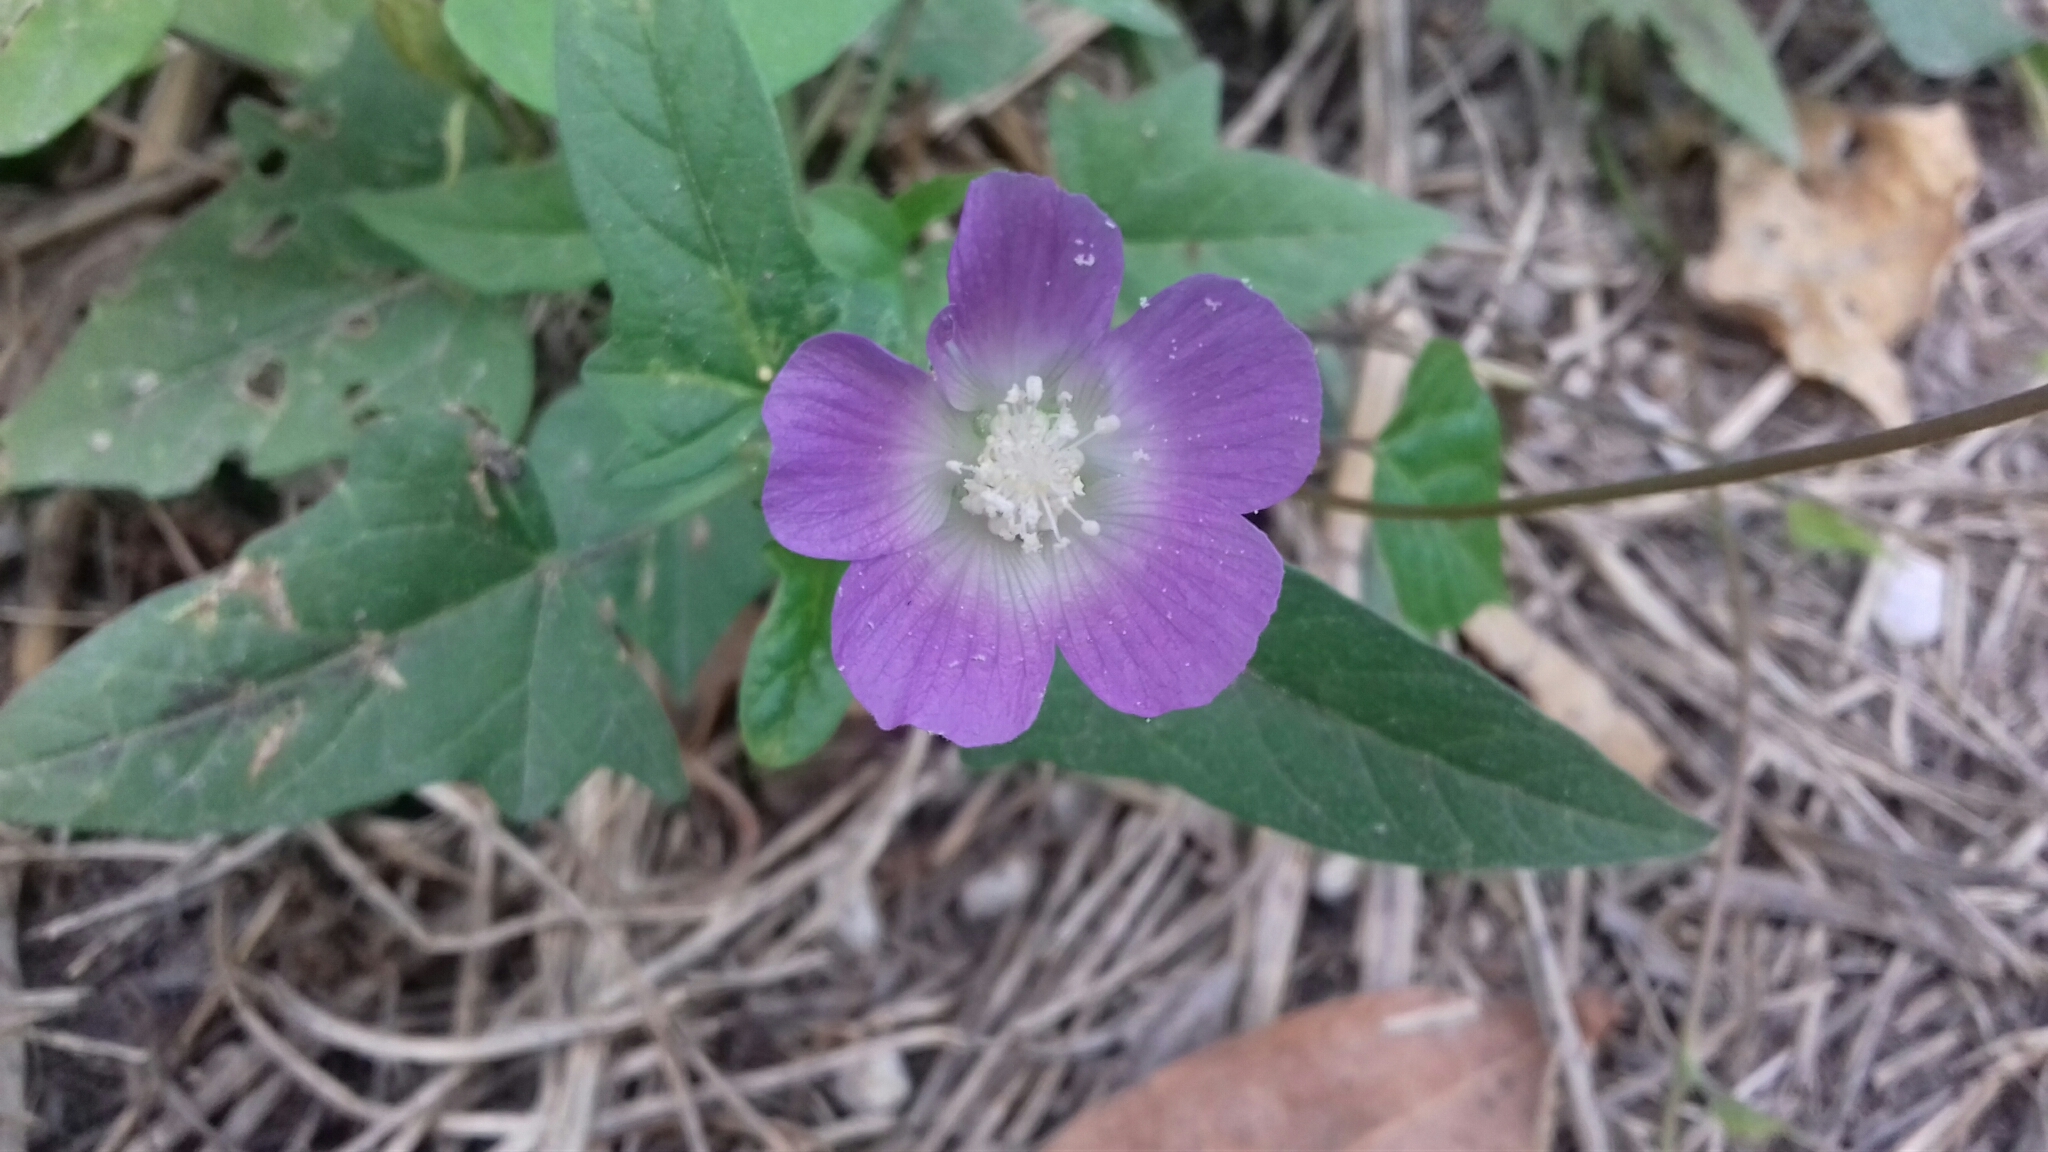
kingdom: Plantae
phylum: Tracheophyta
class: Magnoliopsida
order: Malvales
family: Malvaceae
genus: Anoda
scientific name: Anoda cristata
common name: Spurred anoda
